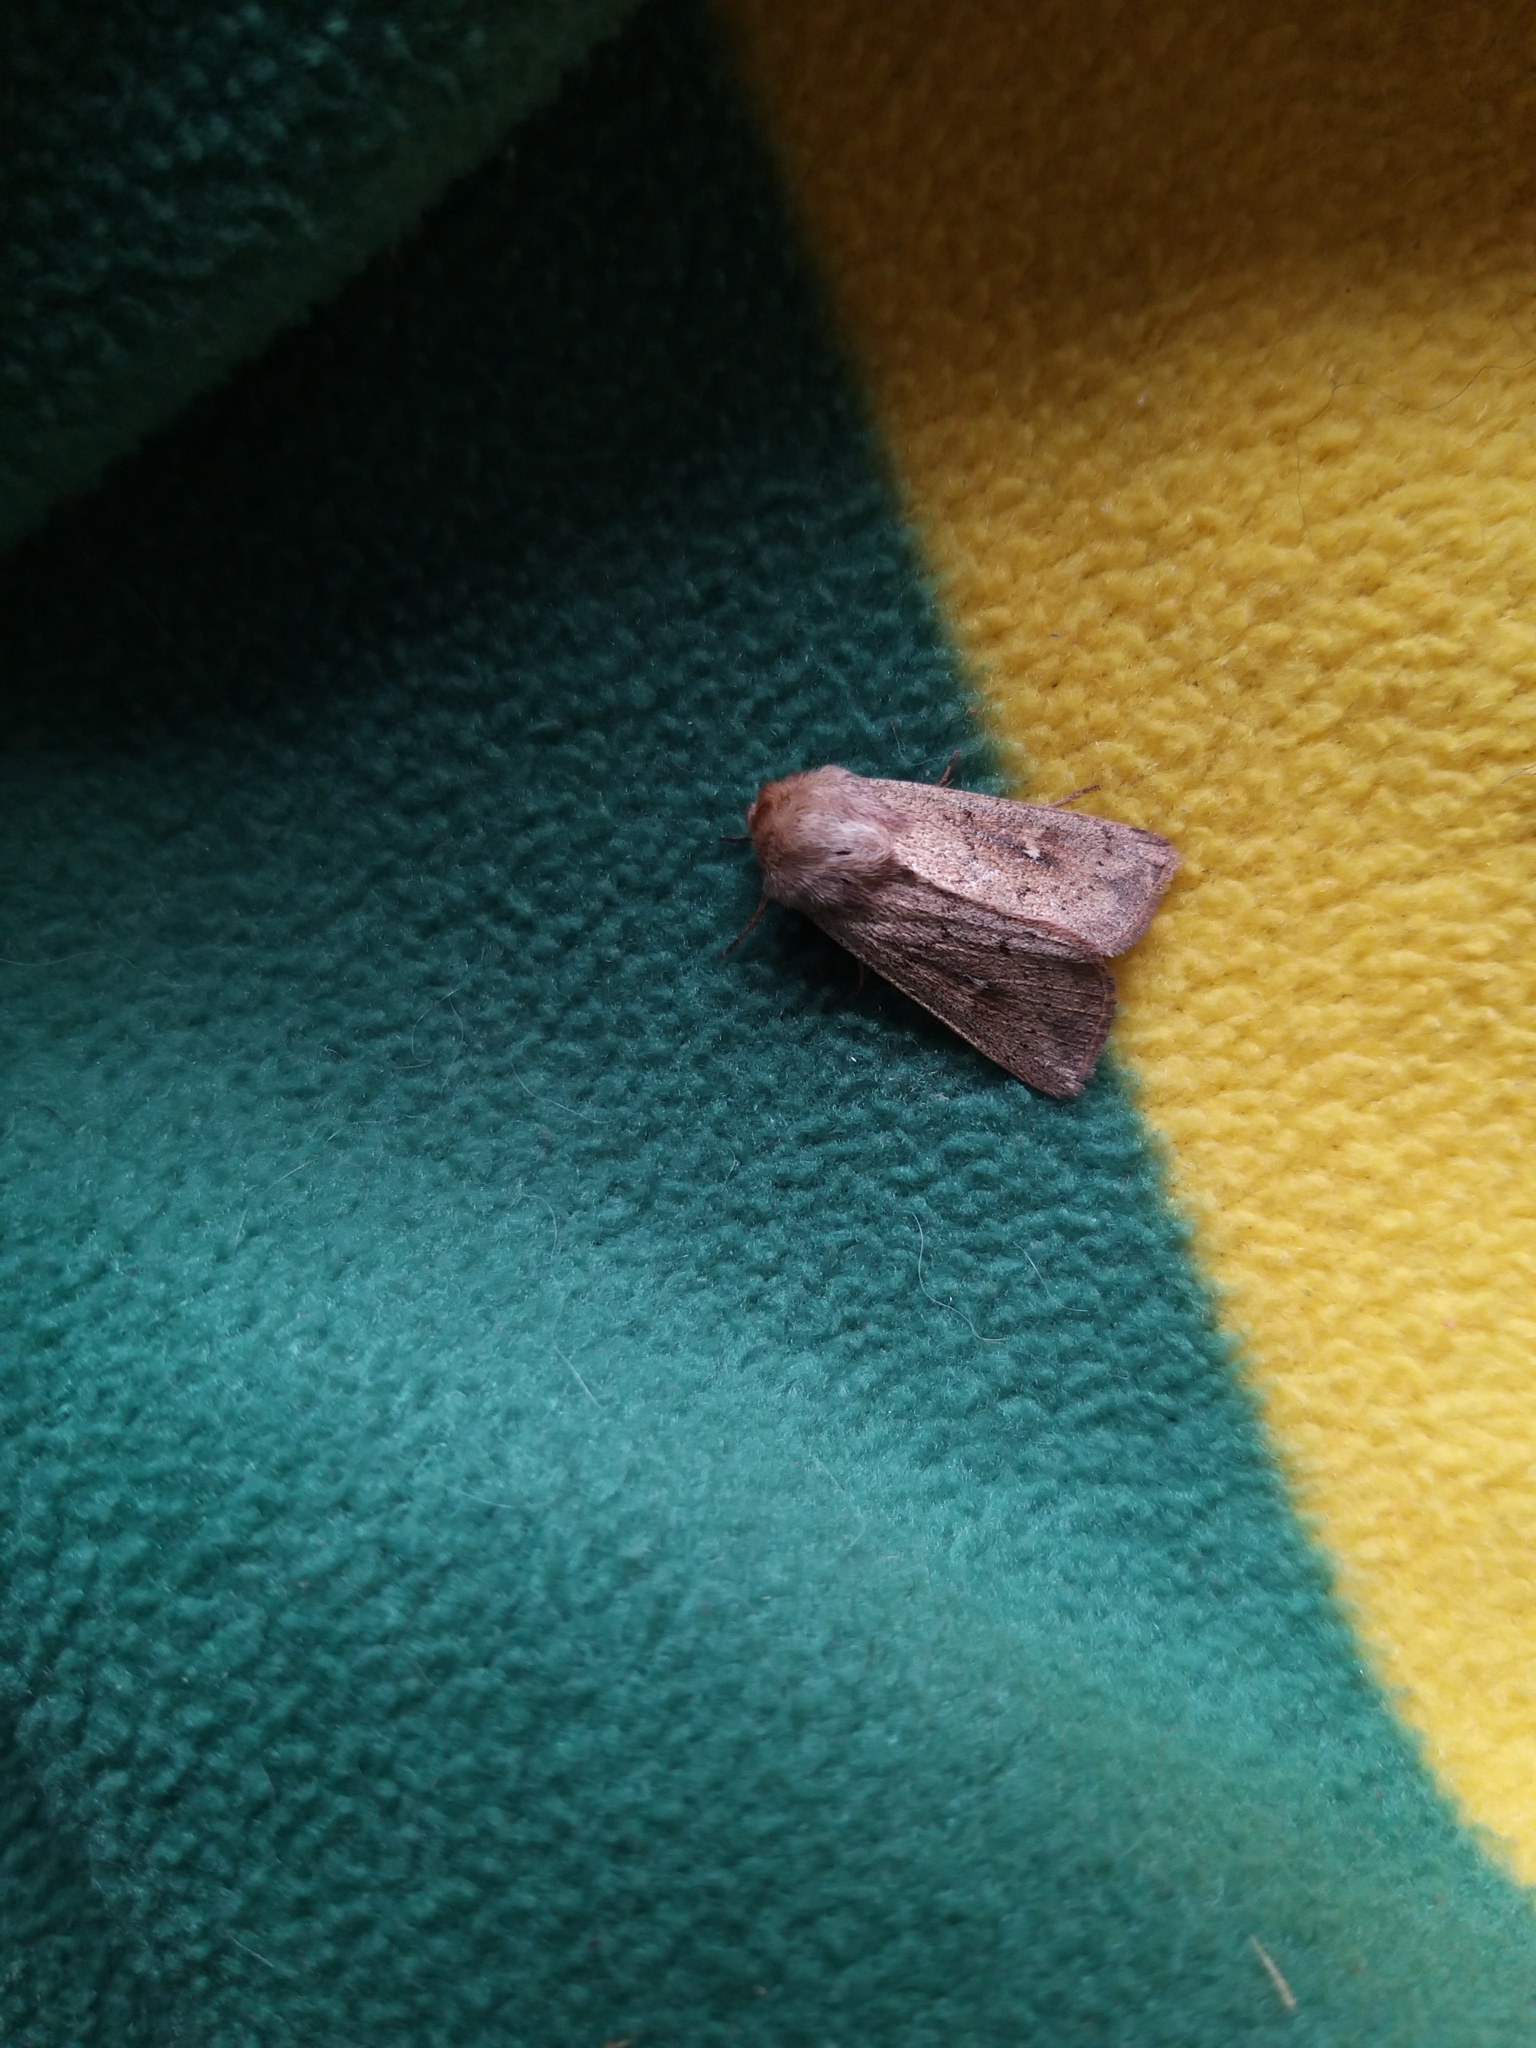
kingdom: Animalia
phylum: Arthropoda
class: Insecta
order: Lepidoptera
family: Noctuidae
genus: Mythimna
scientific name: Mythimna ferrago
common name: Clay
